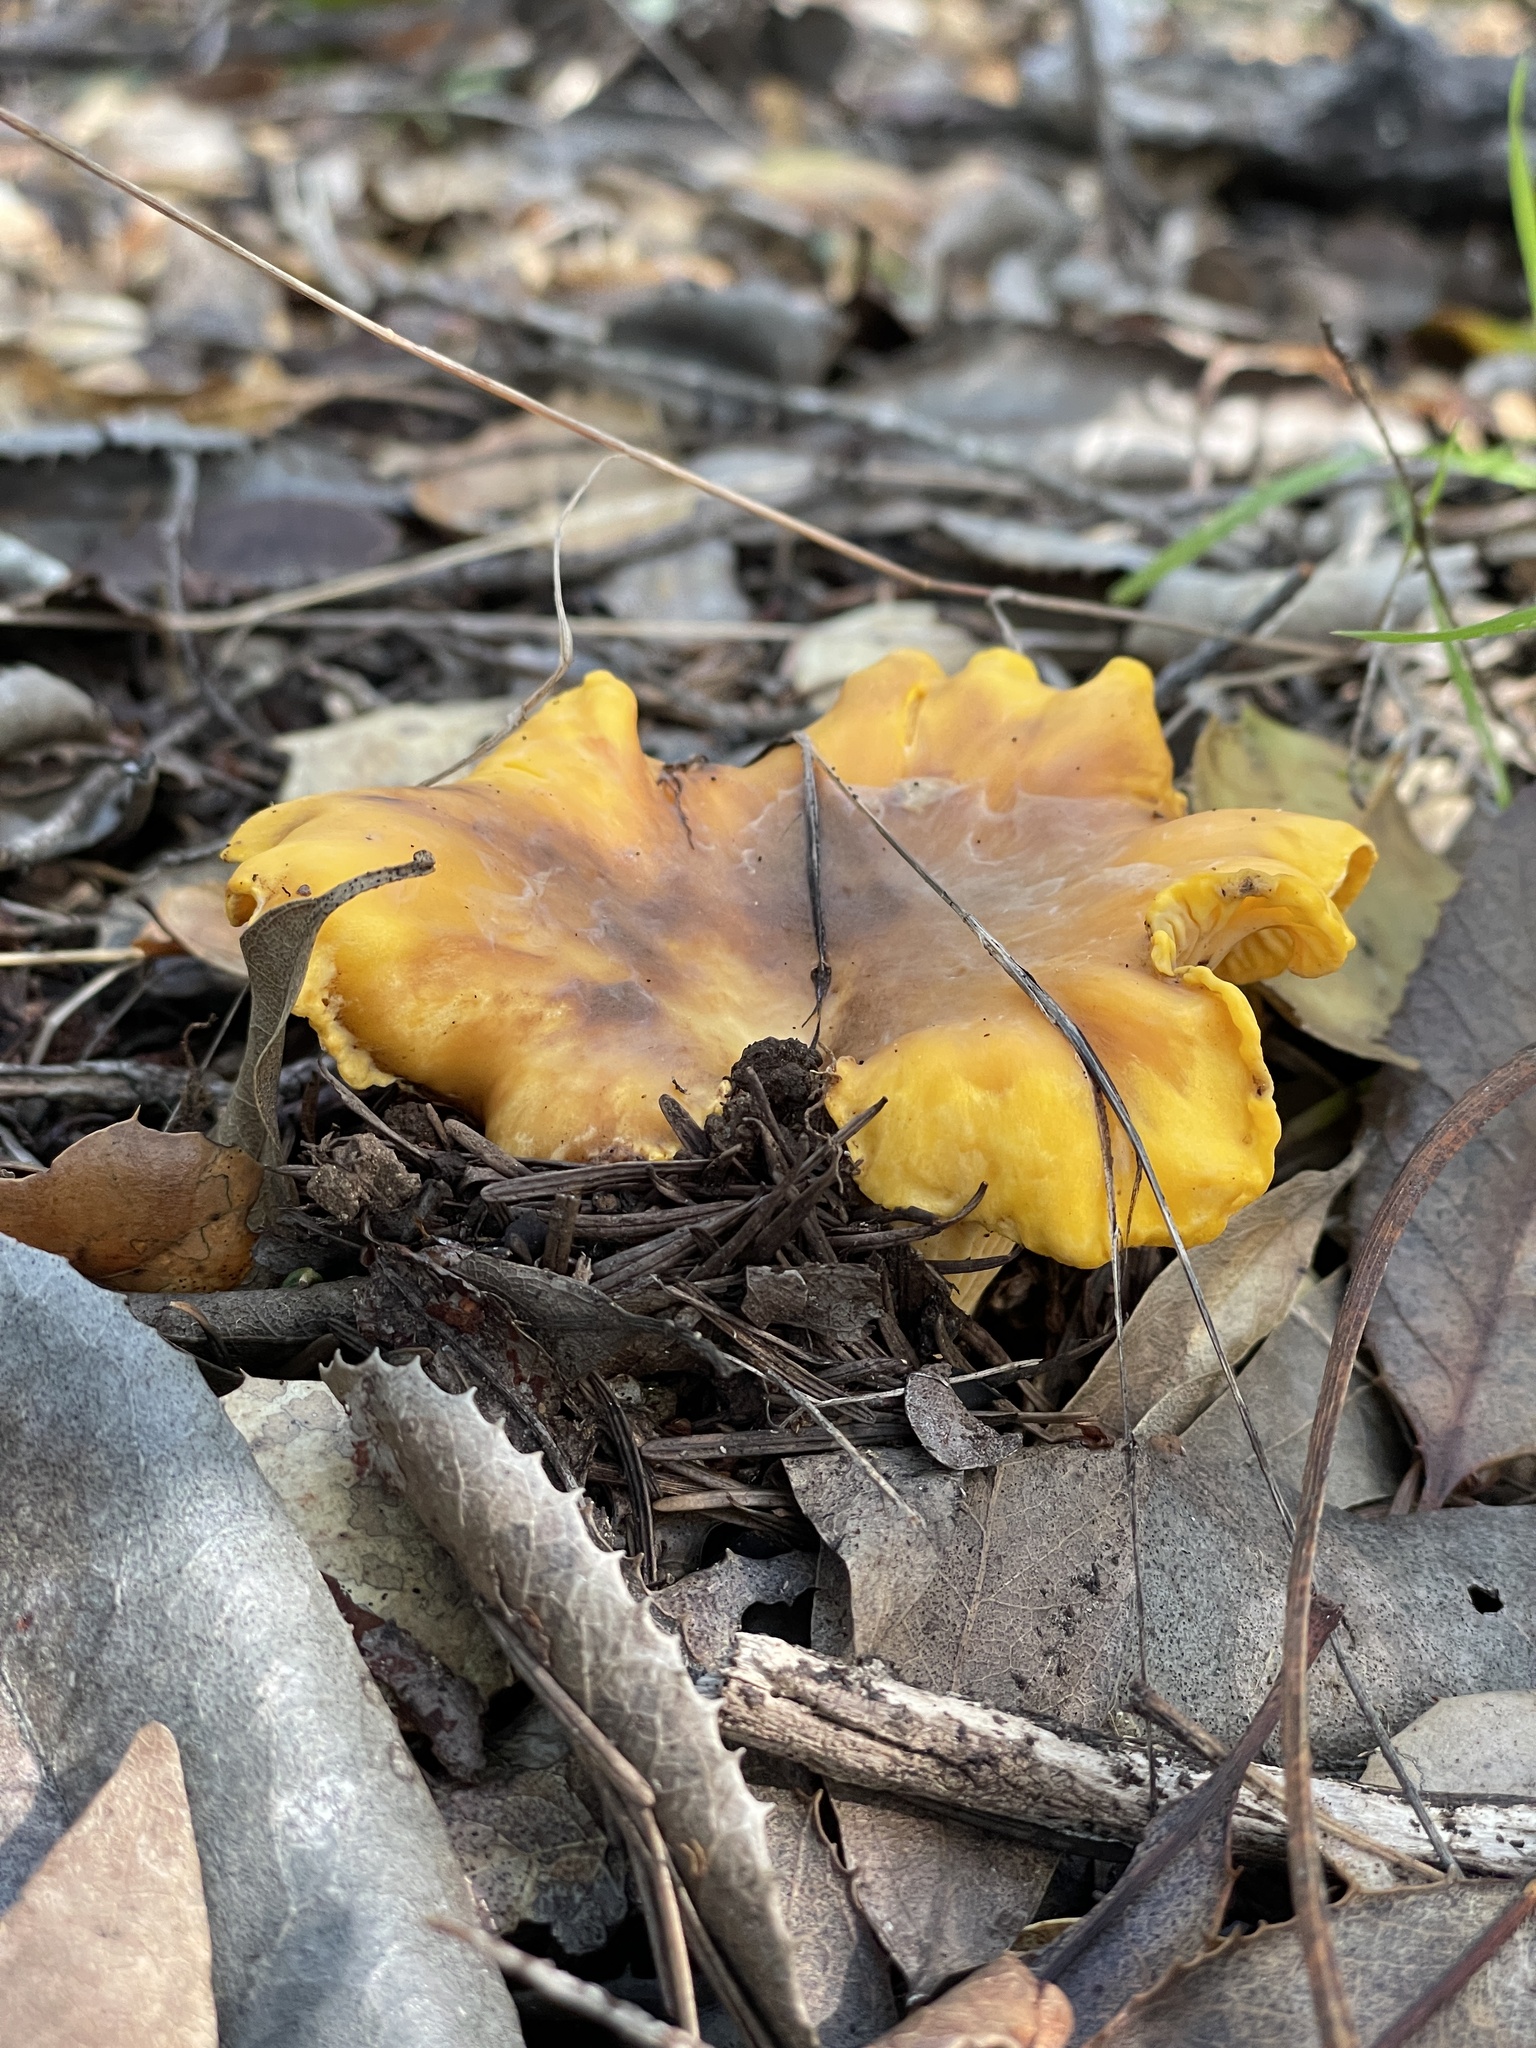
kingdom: Fungi
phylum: Basidiomycota
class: Agaricomycetes
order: Cantharellales
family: Hydnaceae
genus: Cantharellus
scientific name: Cantharellus californicus
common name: California golden chanterelle
